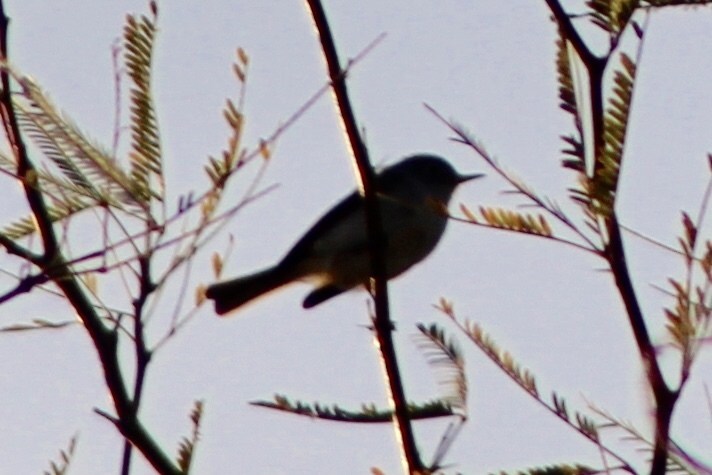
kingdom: Animalia
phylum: Chordata
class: Aves
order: Passeriformes
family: Polioptilidae
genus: Polioptila
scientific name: Polioptila caerulea
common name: Blue-gray gnatcatcher
